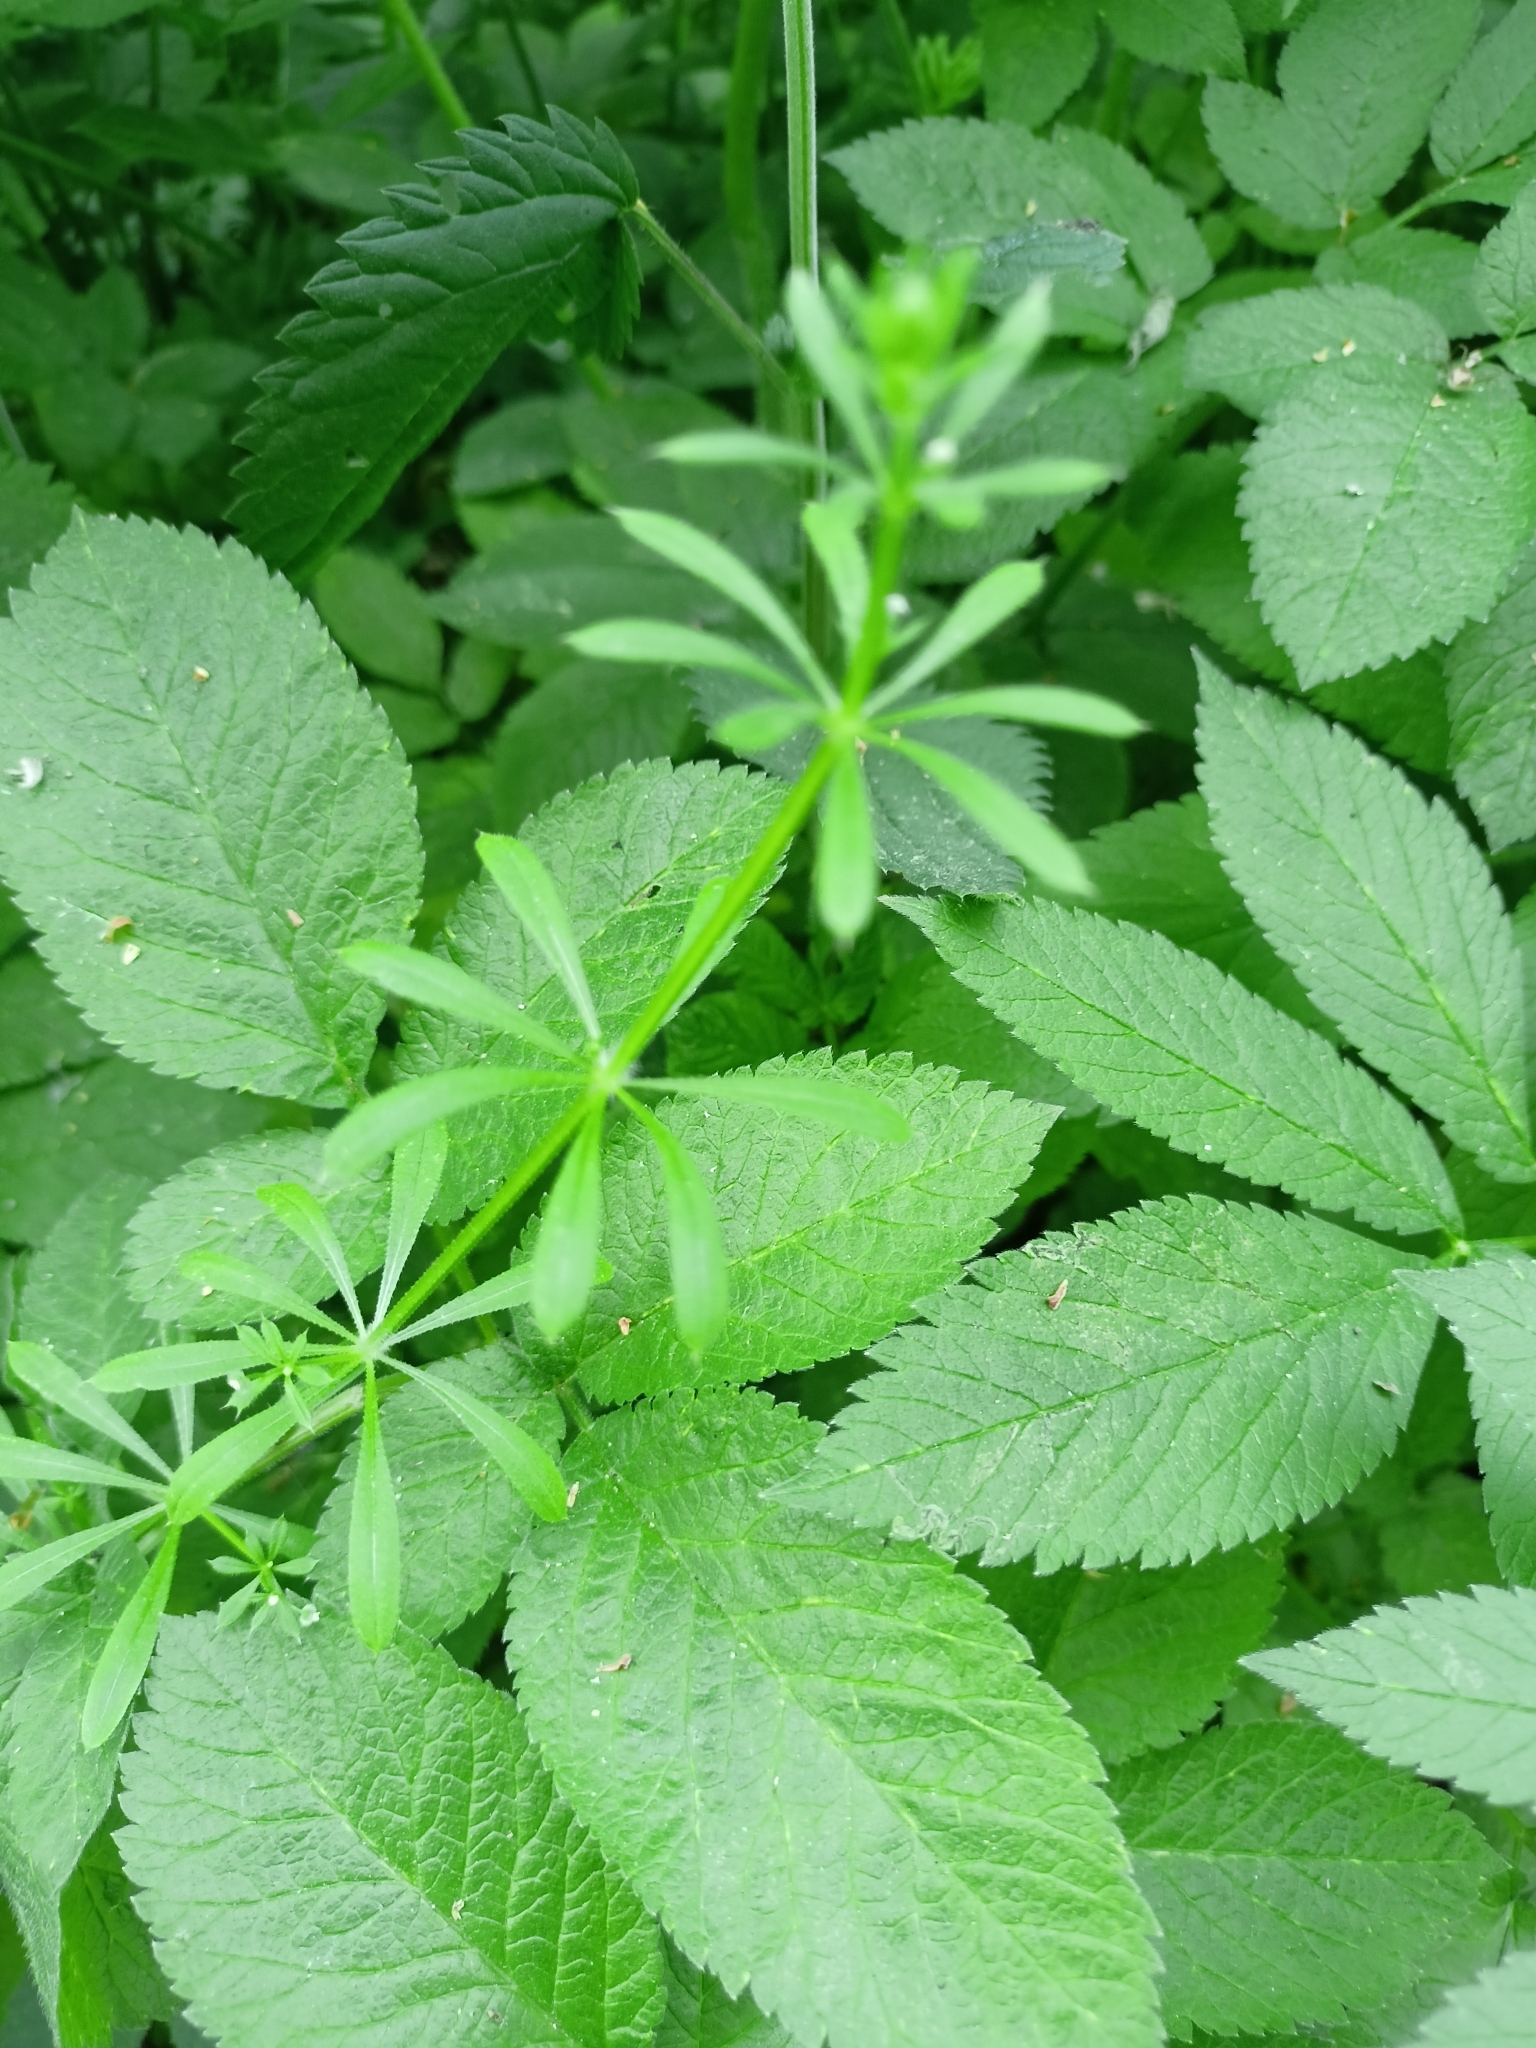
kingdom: Plantae
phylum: Tracheophyta
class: Magnoliopsida
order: Gentianales
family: Rubiaceae
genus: Galium
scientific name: Galium aparine
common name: Cleavers
